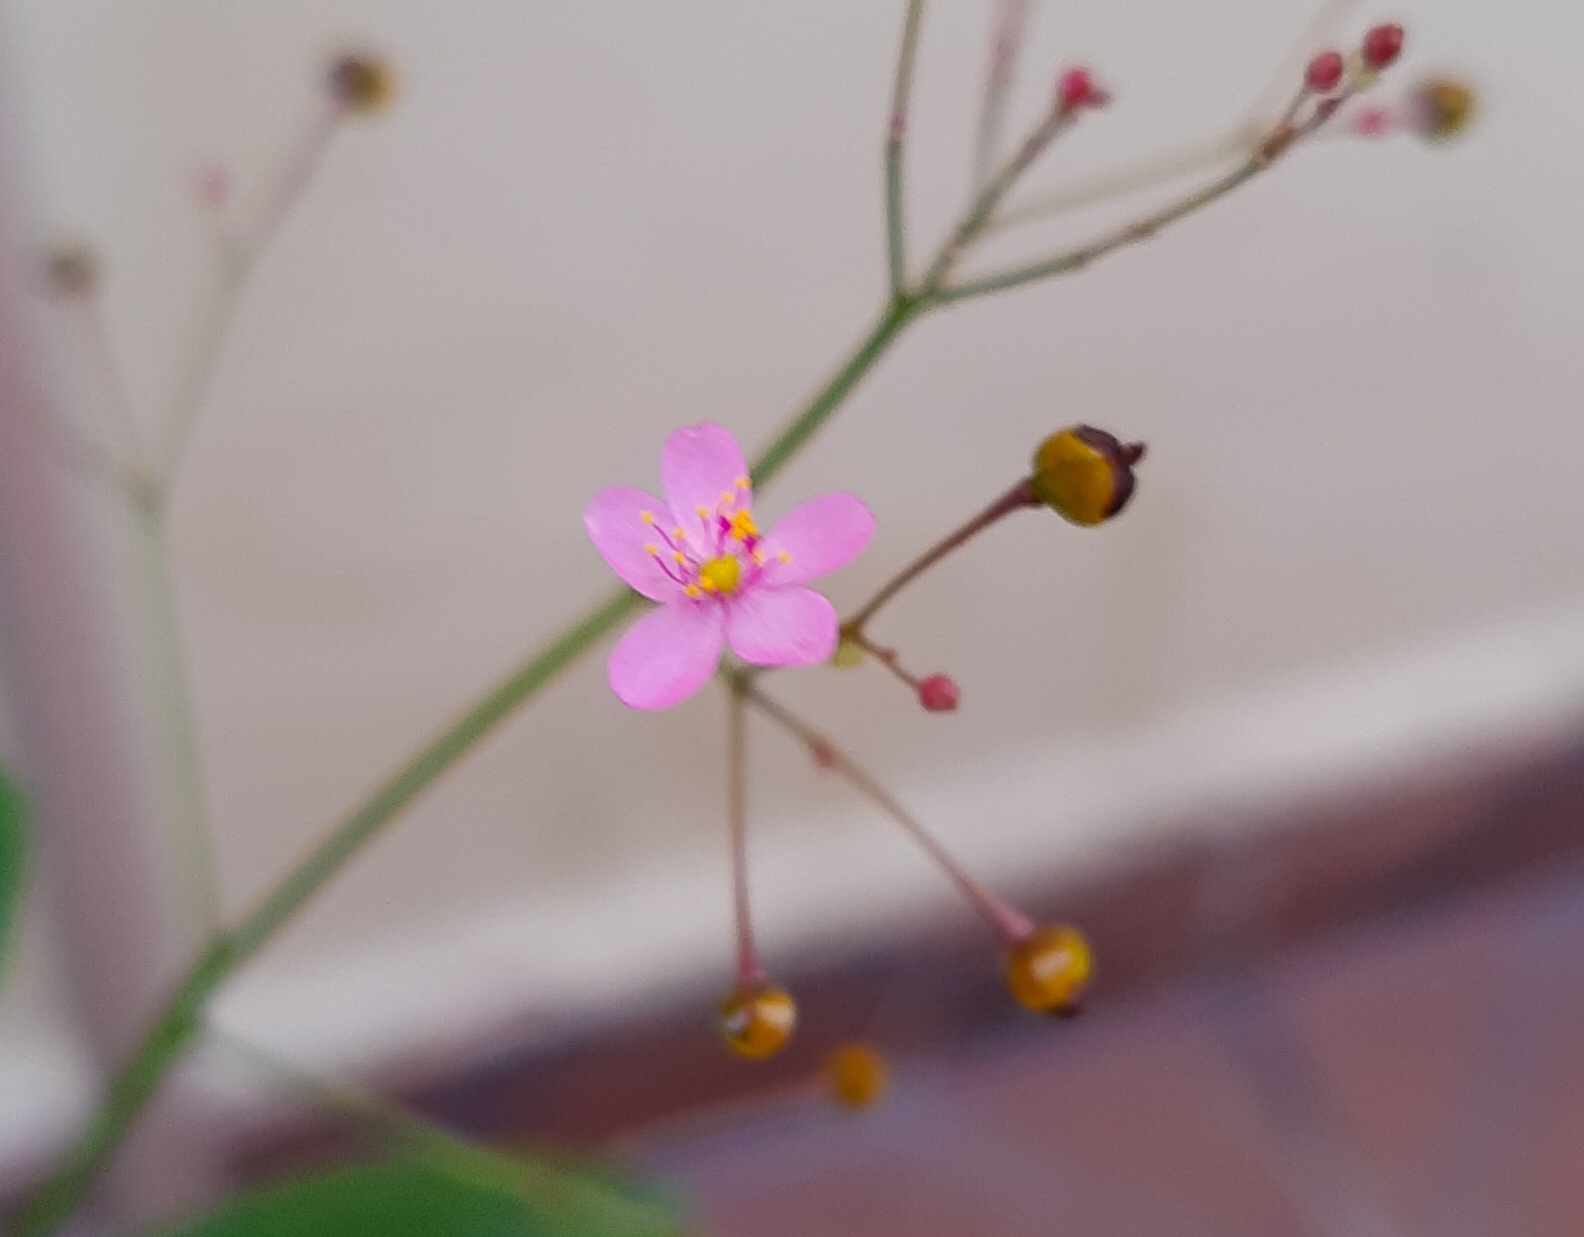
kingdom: Plantae
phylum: Tracheophyta
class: Magnoliopsida
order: Caryophyllales
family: Talinaceae
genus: Talinum
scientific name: Talinum paniculatum
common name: Jewels of opar
